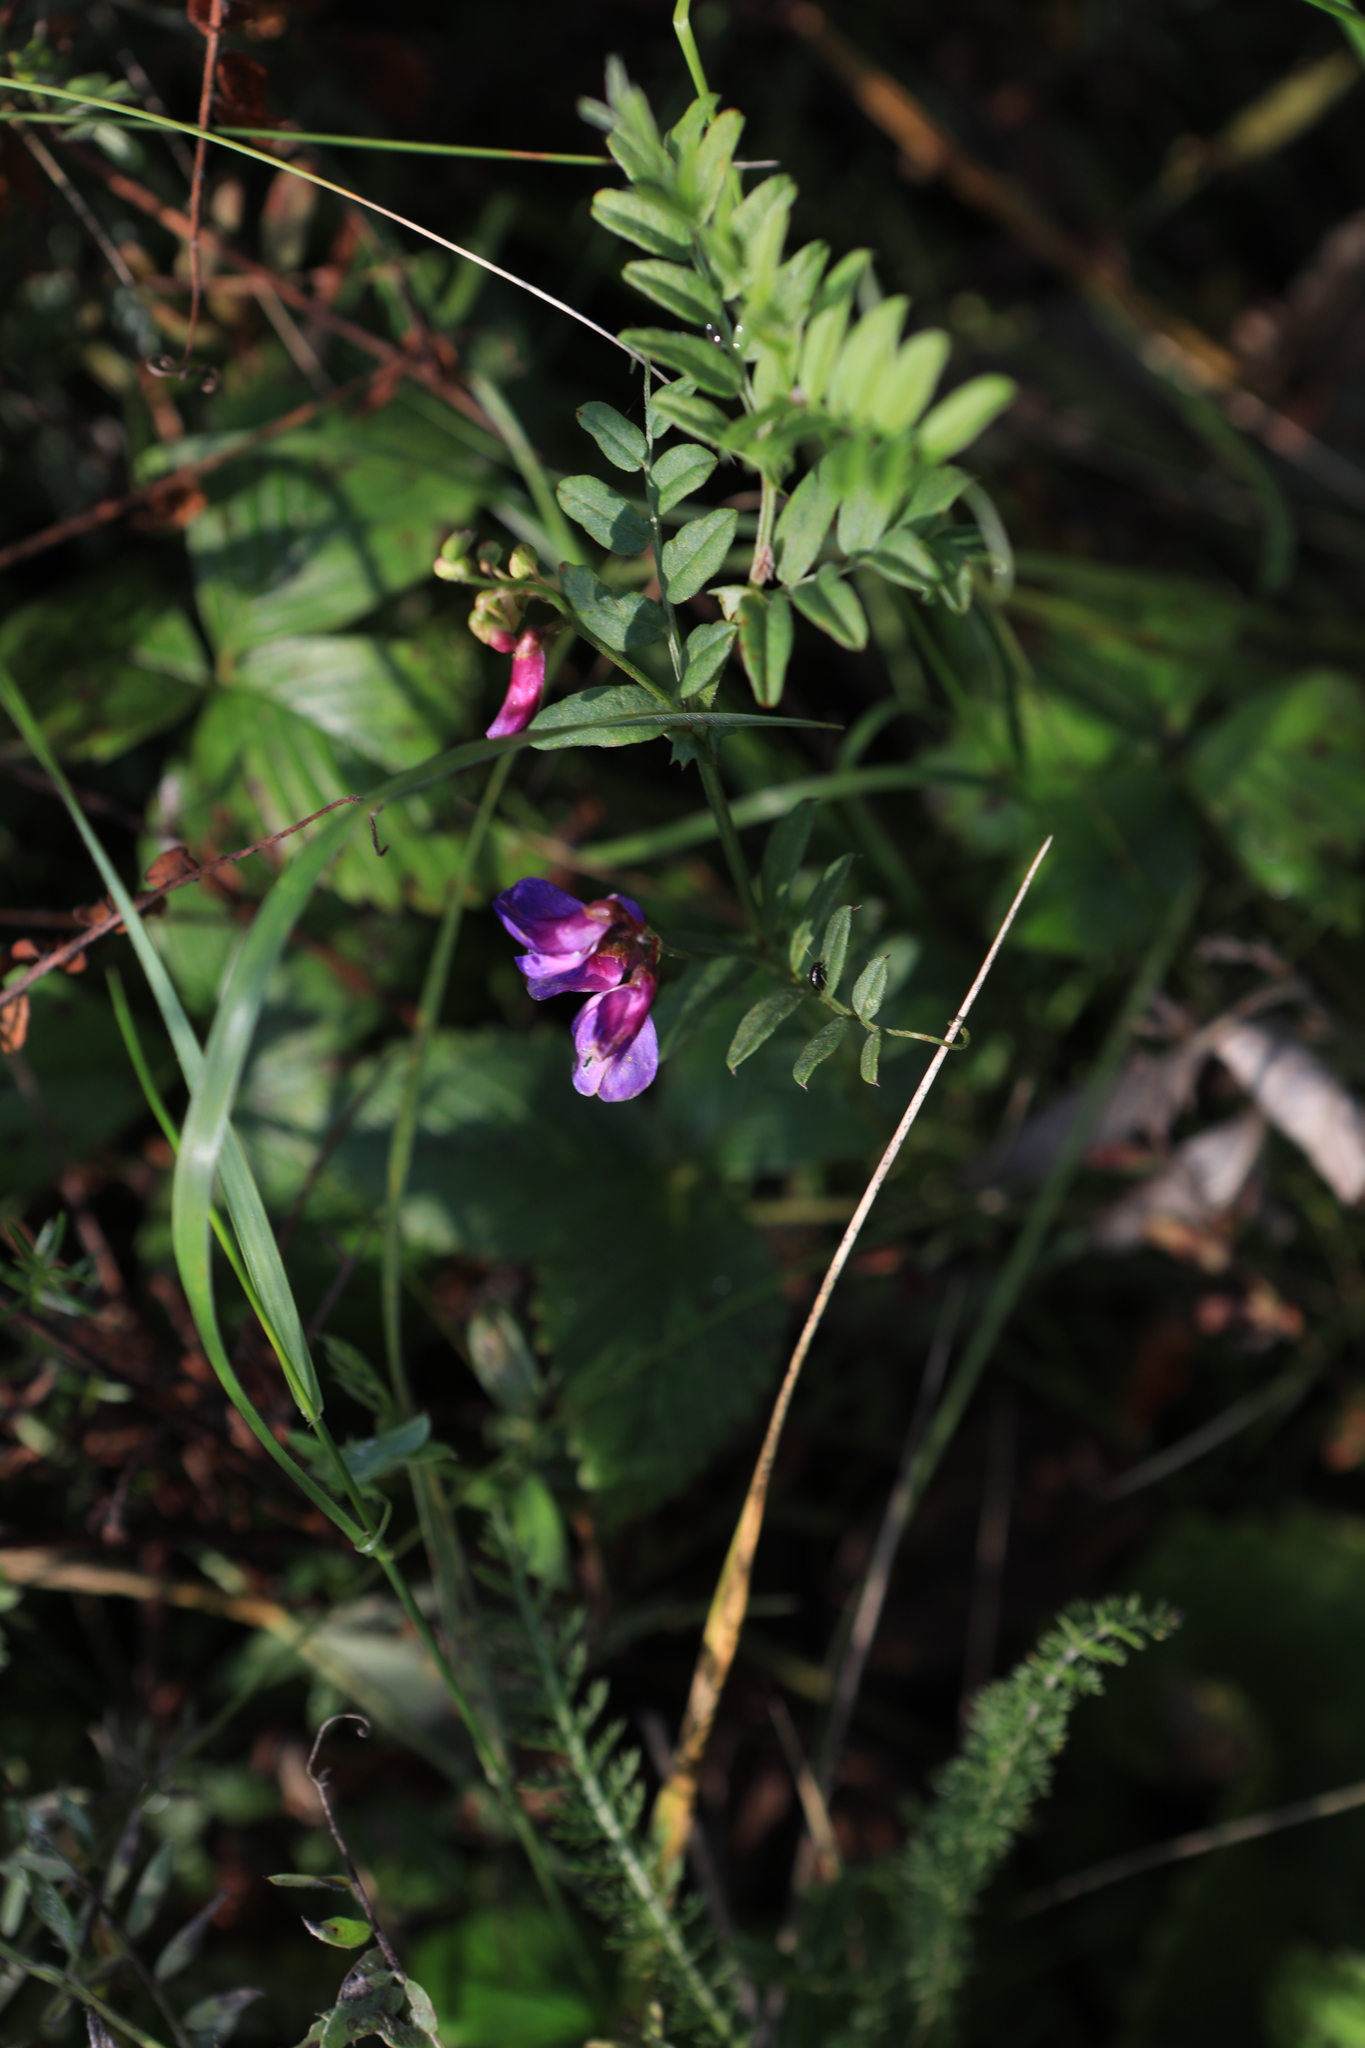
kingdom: Plantae
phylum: Tracheophyta
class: Magnoliopsida
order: Fabales
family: Fabaceae
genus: Vicia
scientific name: Vicia amoena
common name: Cheder ebs
